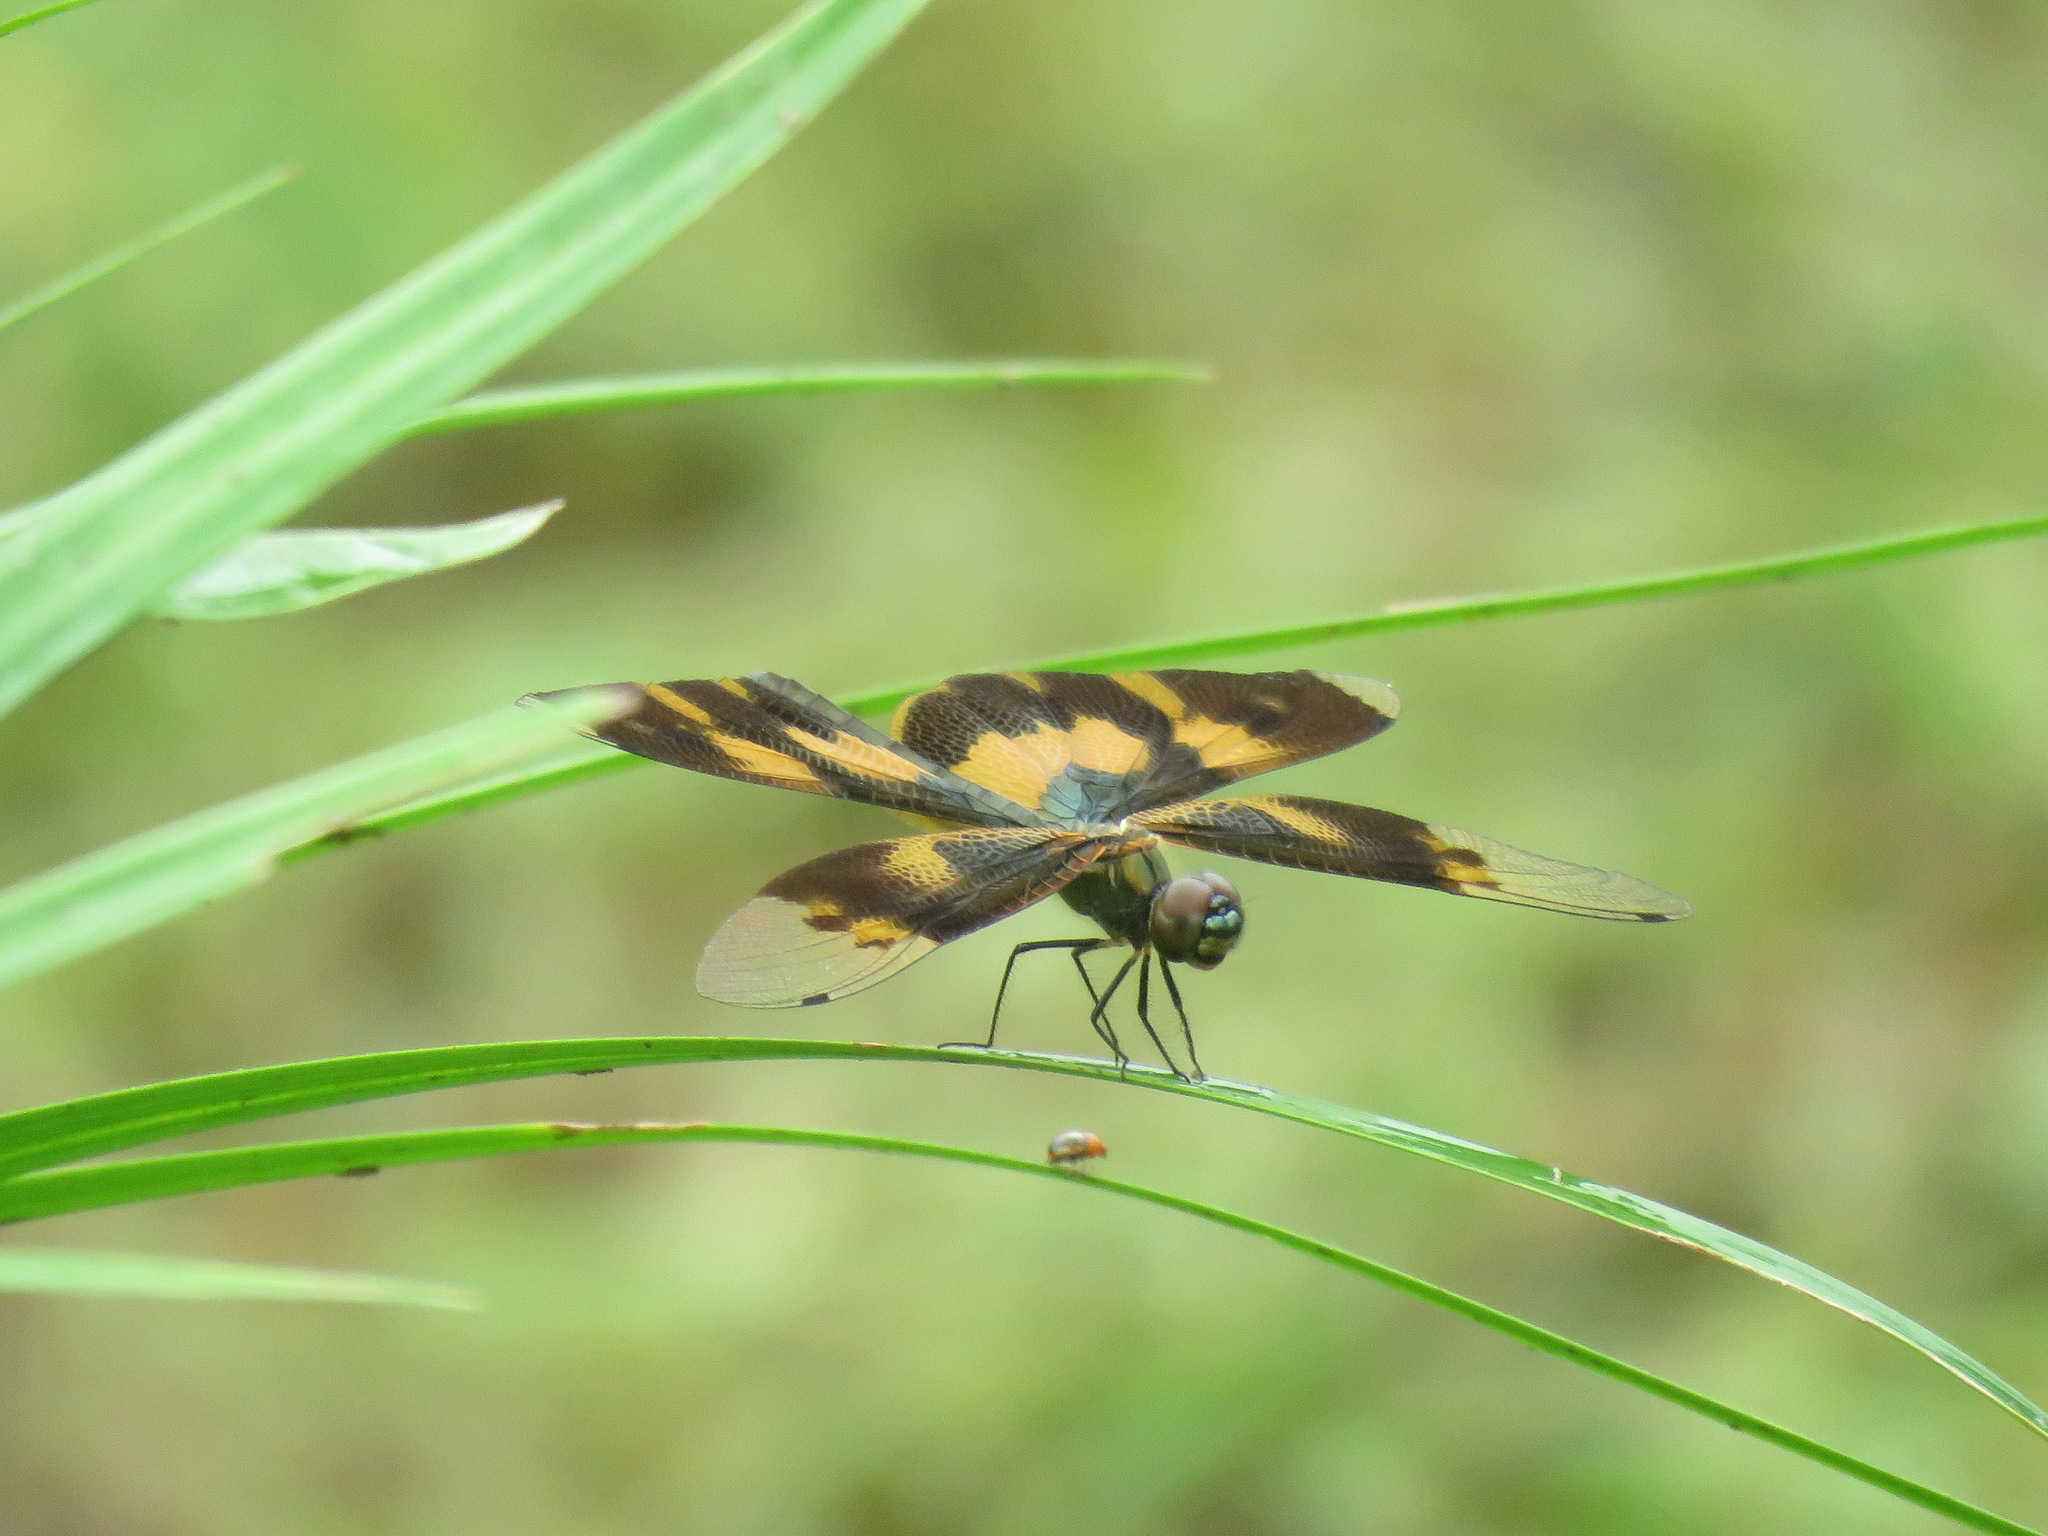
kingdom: Animalia
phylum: Arthropoda
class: Insecta
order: Odonata
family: Libellulidae
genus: Rhyothemis
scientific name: Rhyothemis variegata
